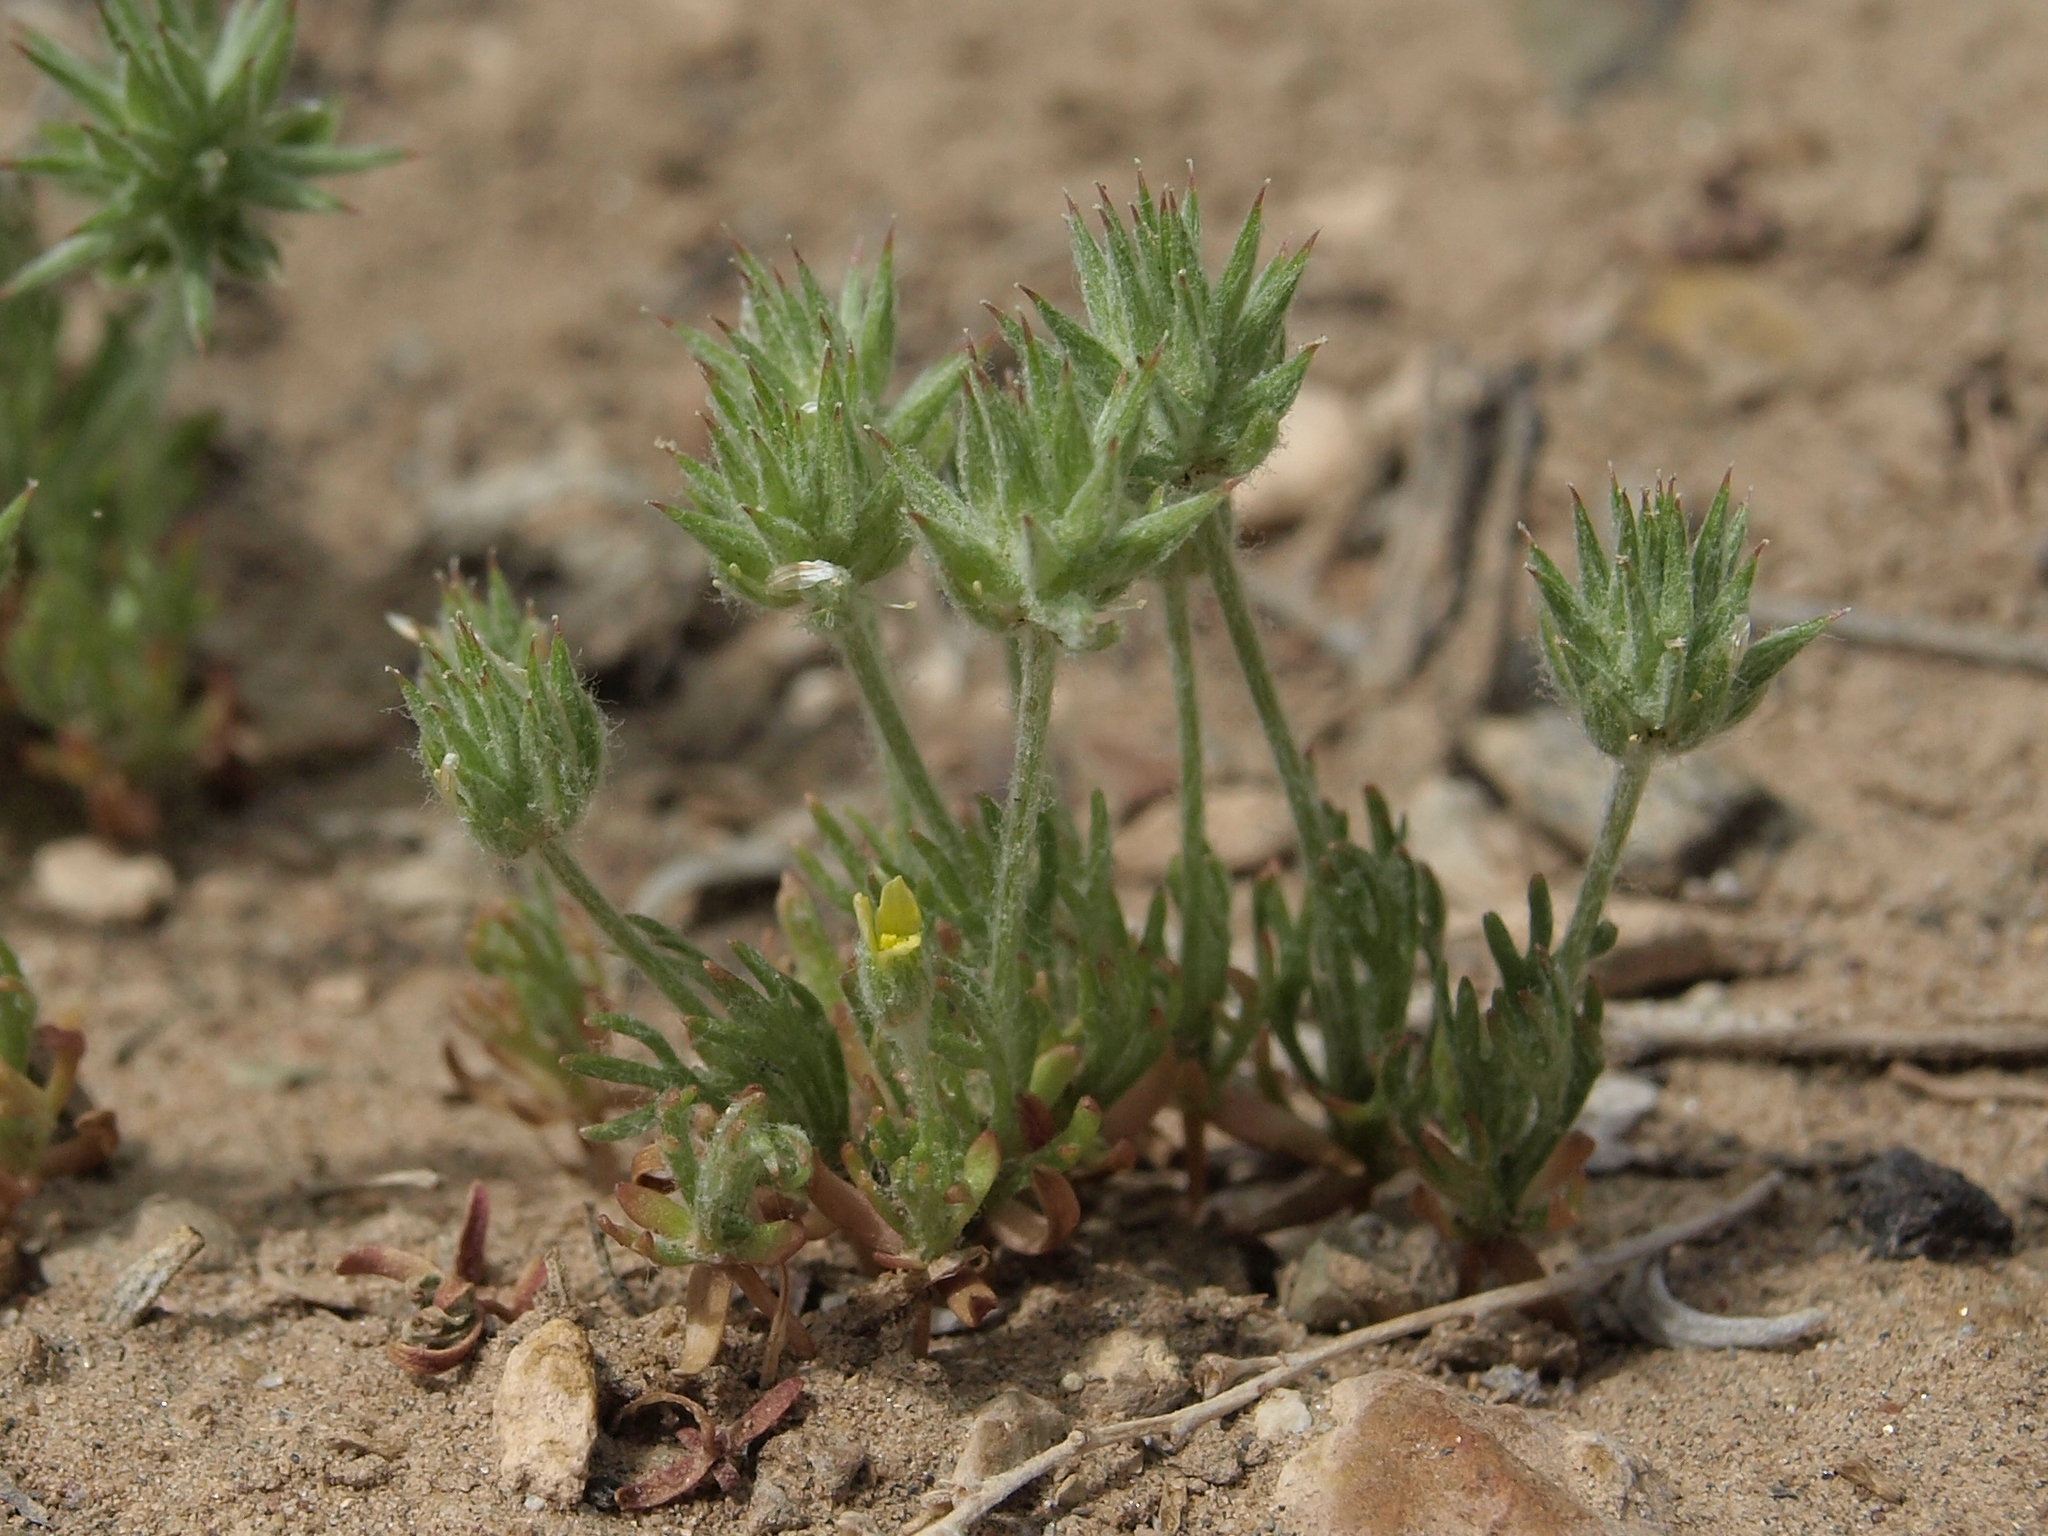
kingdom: Plantae
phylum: Tracheophyta
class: Magnoliopsida
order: Ranunculales
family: Ranunculaceae
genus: Ceratocephala
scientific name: Ceratocephala orthoceras
